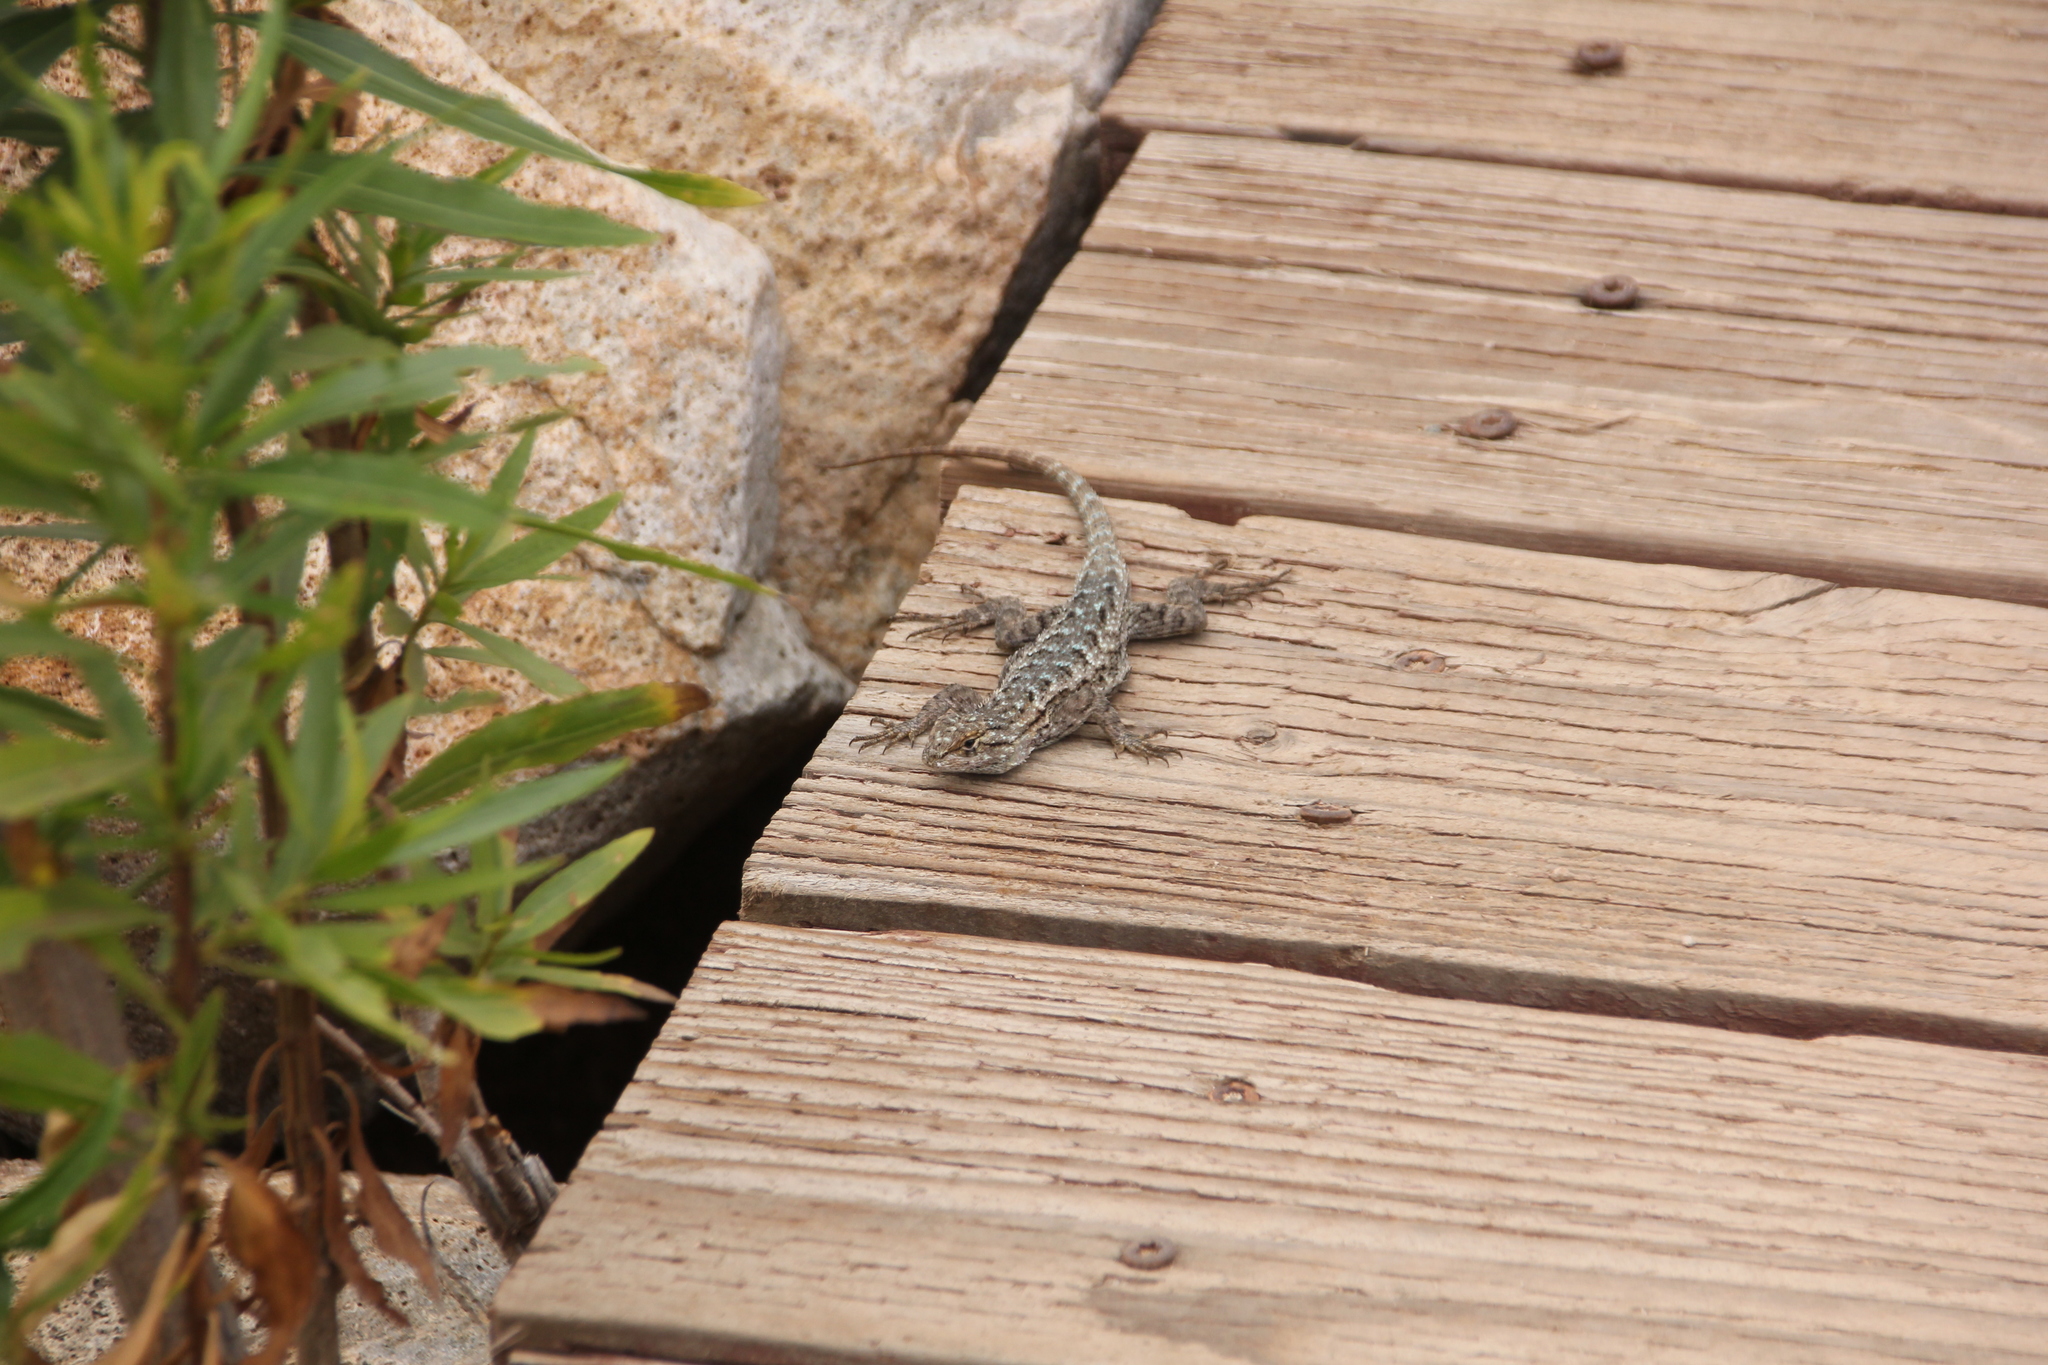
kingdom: Animalia
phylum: Chordata
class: Squamata
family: Phrynosomatidae
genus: Sceloporus
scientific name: Sceloporus occidentalis
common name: Western fence lizard
